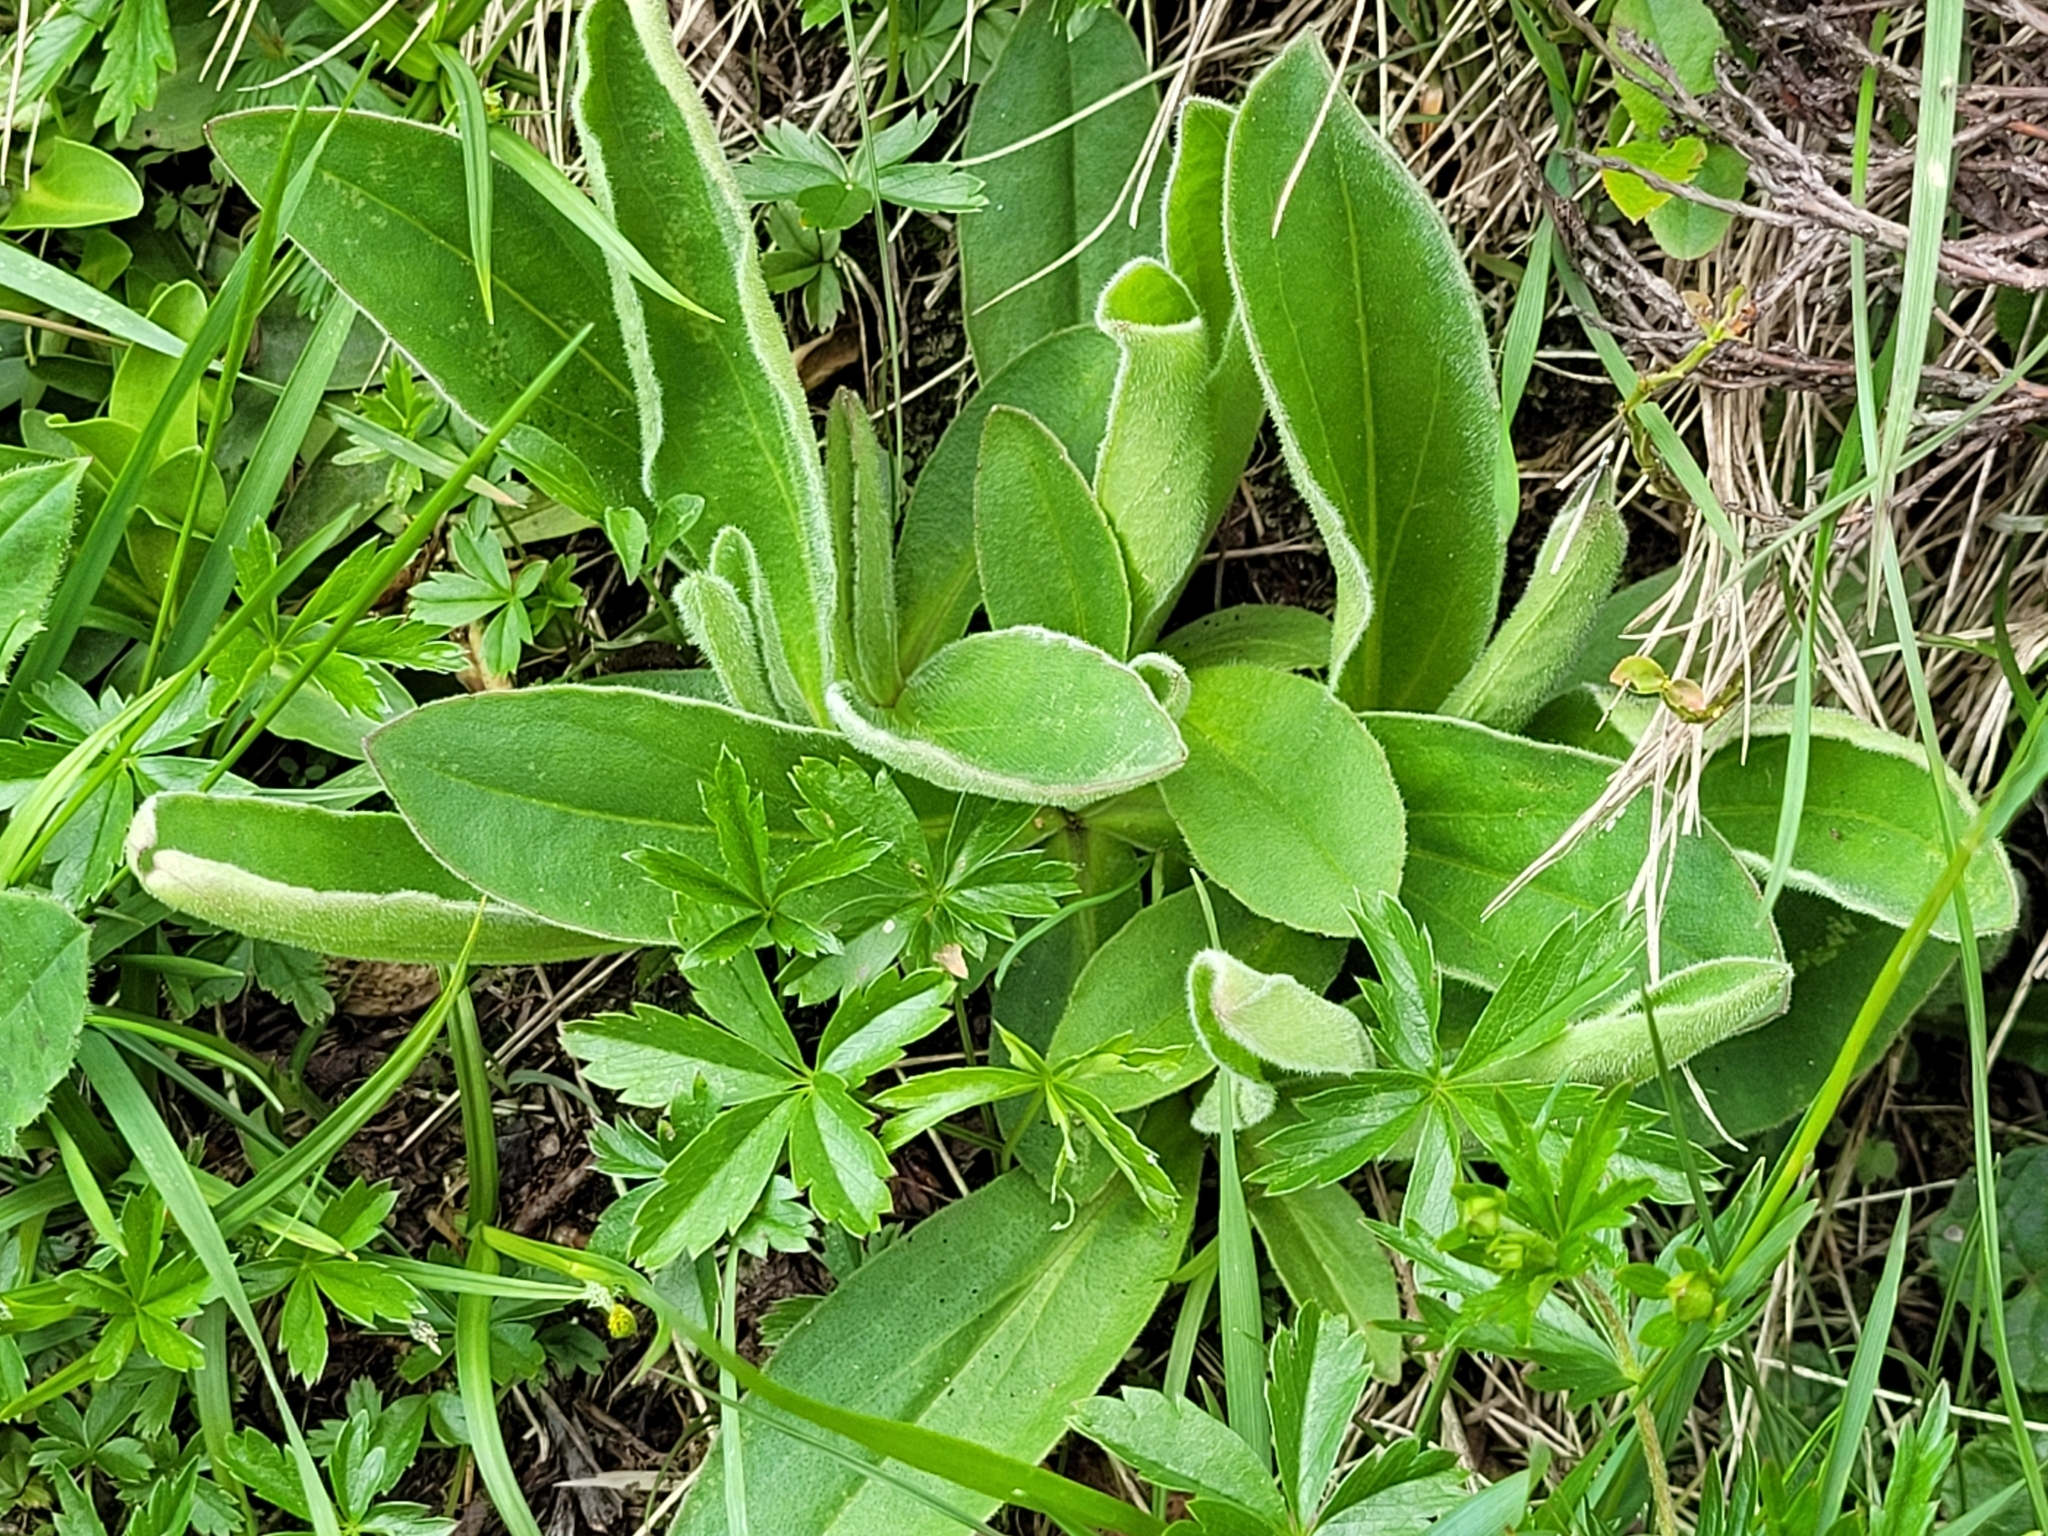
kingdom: Plantae
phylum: Tracheophyta
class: Magnoliopsida
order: Asterales
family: Asteraceae
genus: Arnica
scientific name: Arnica montana
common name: Leopard's bane
